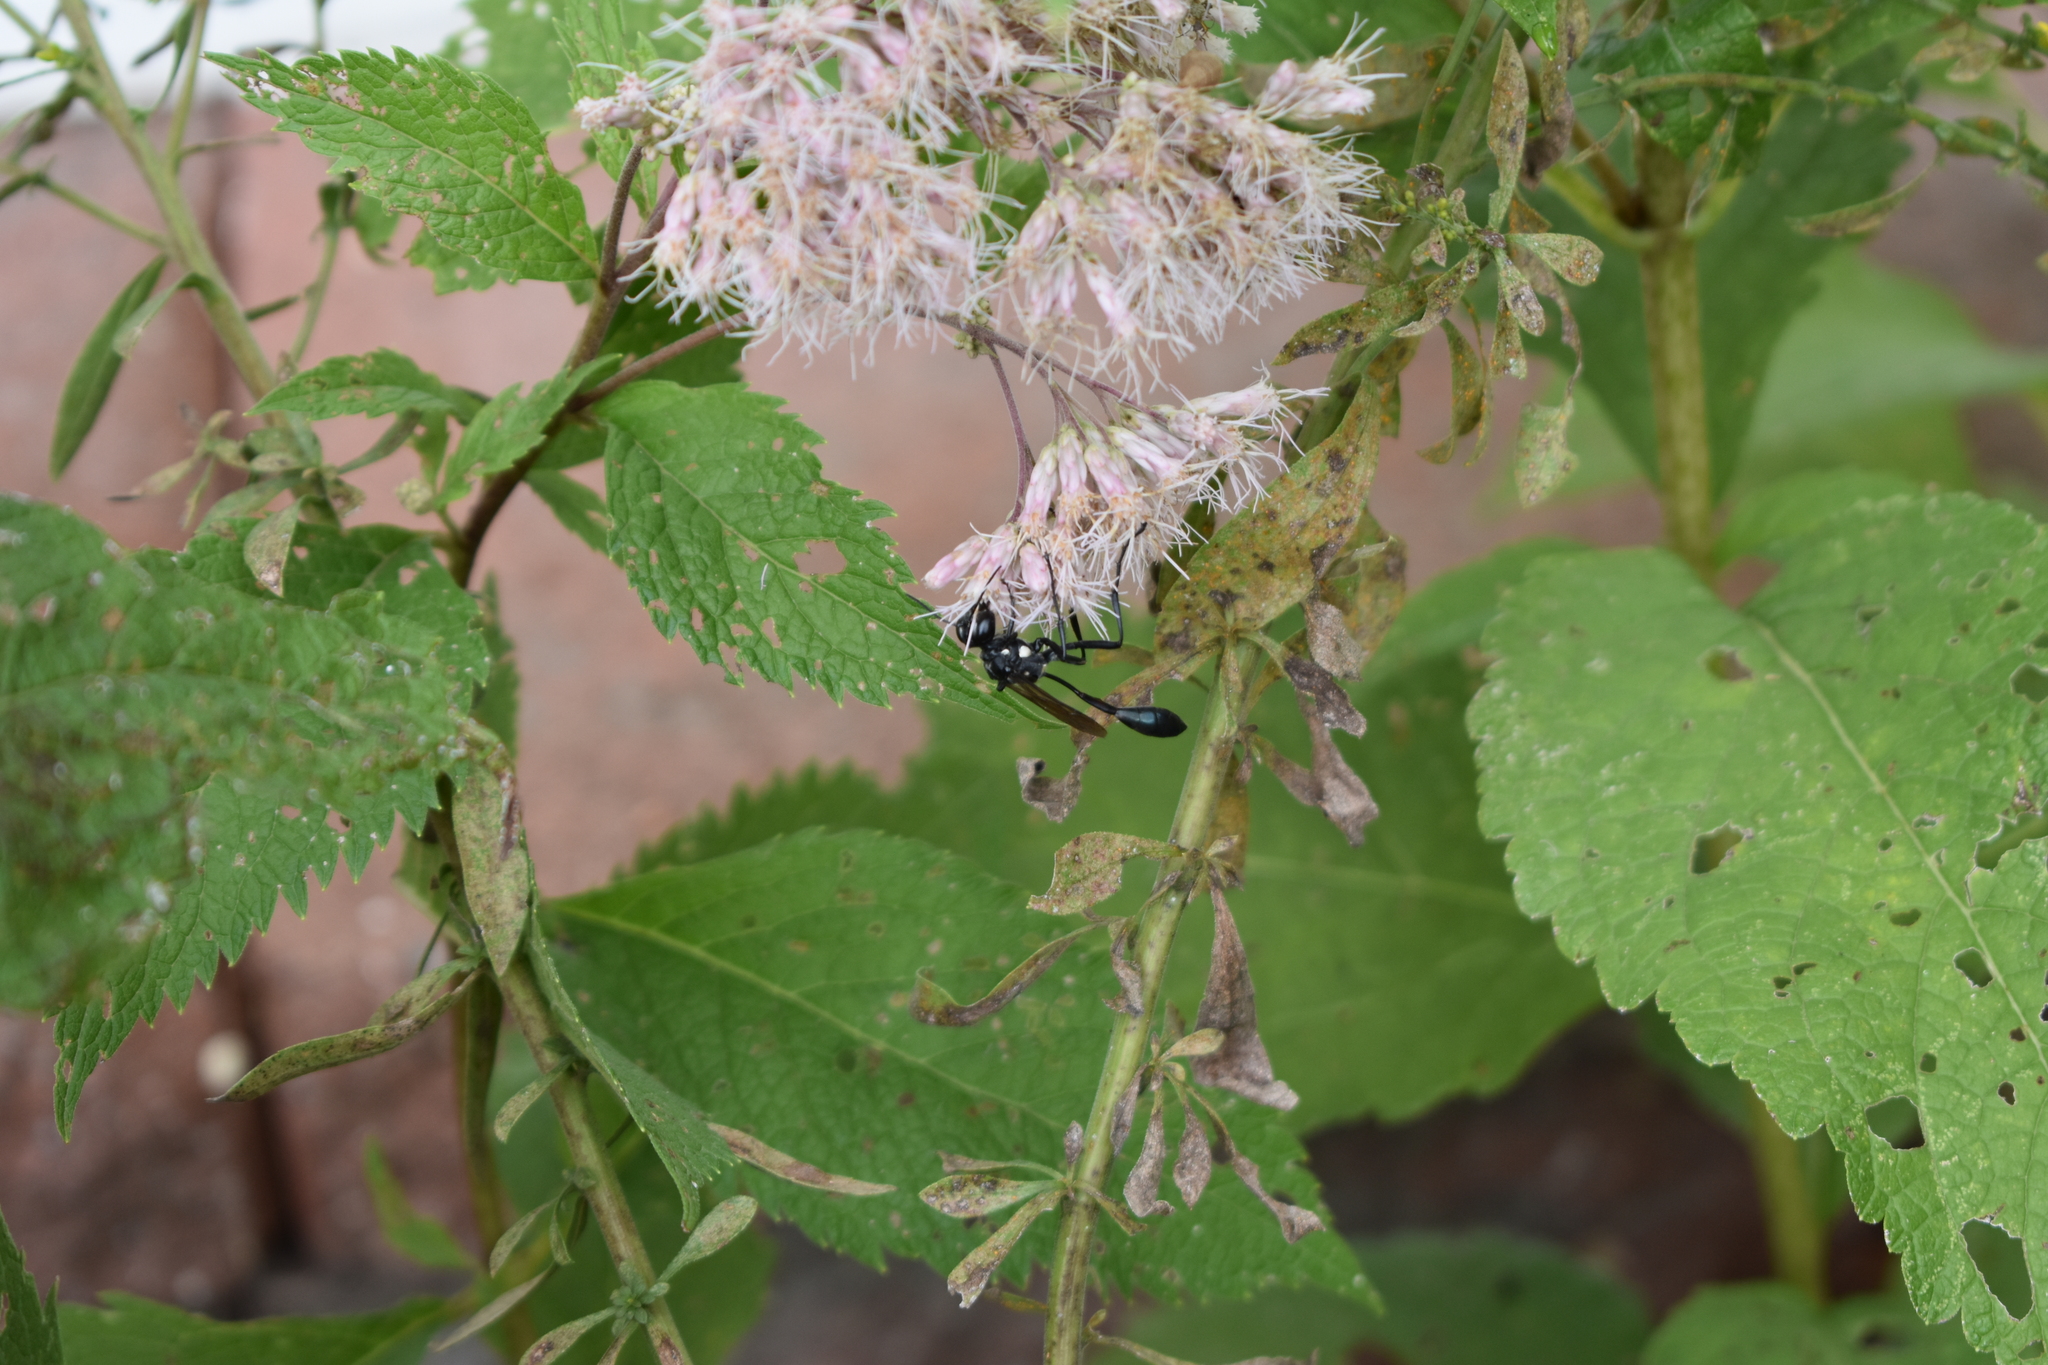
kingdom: Animalia
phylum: Arthropoda
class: Insecta
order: Hymenoptera
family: Sphecidae
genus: Eremnophila
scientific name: Eremnophila aureonotata
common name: Gold-marked thread-waisted wasp
